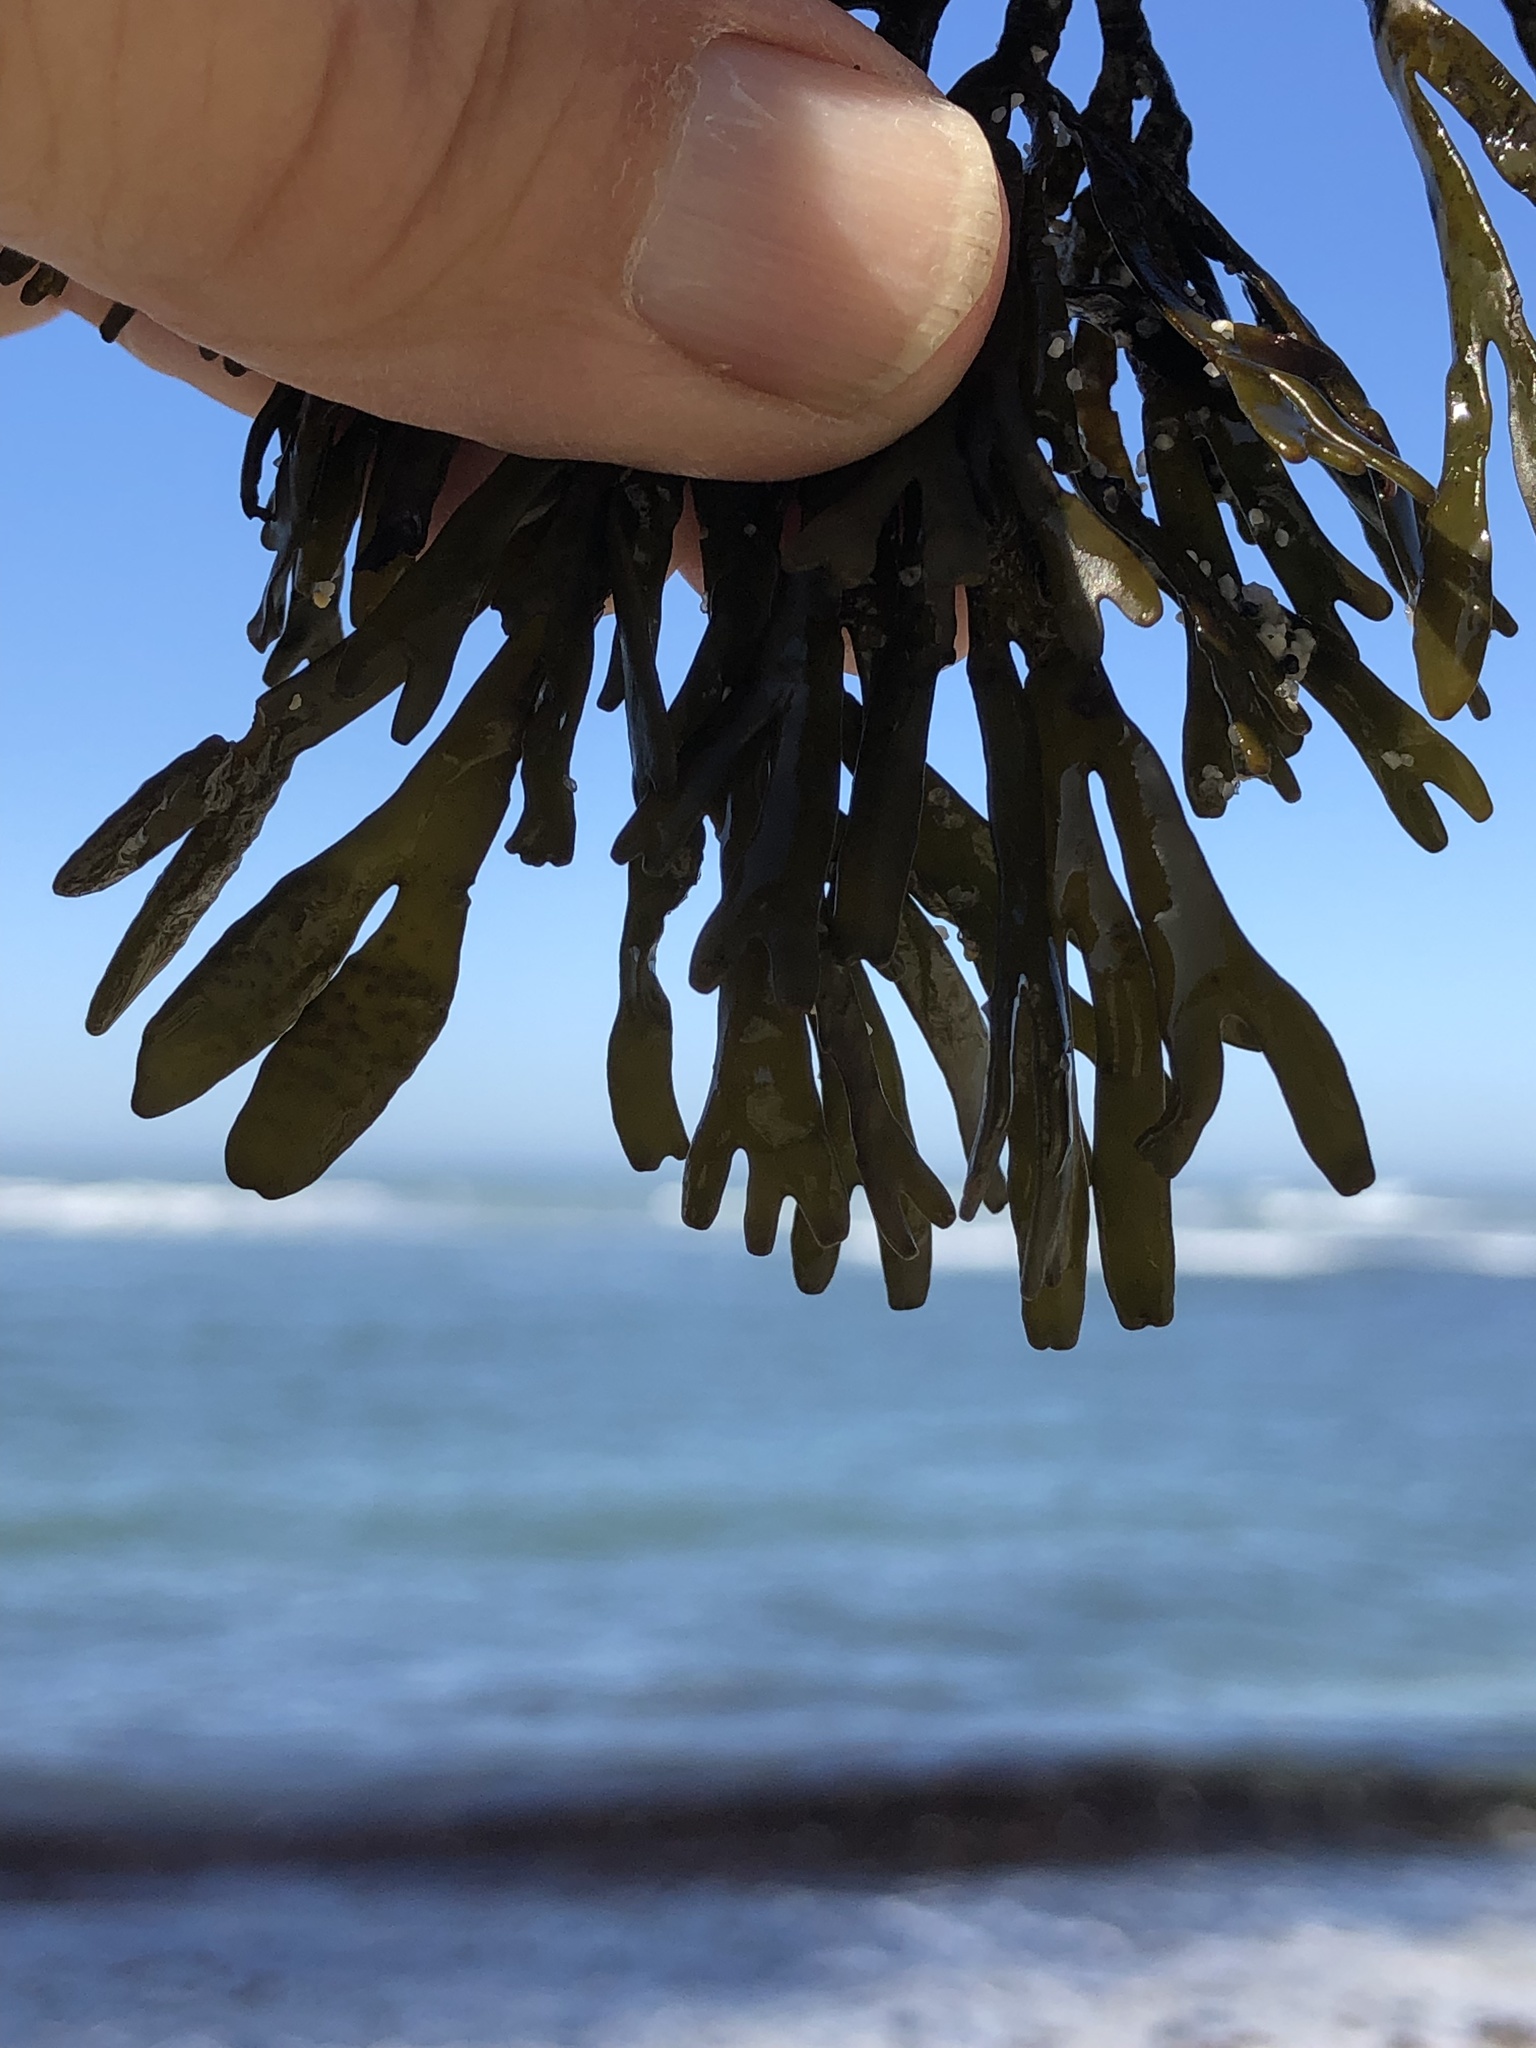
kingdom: Chromista
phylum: Ochrophyta
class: Phaeophyceae
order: Fucales
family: Fucaceae
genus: Pelvetiopsis
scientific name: Pelvetiopsis limitata
